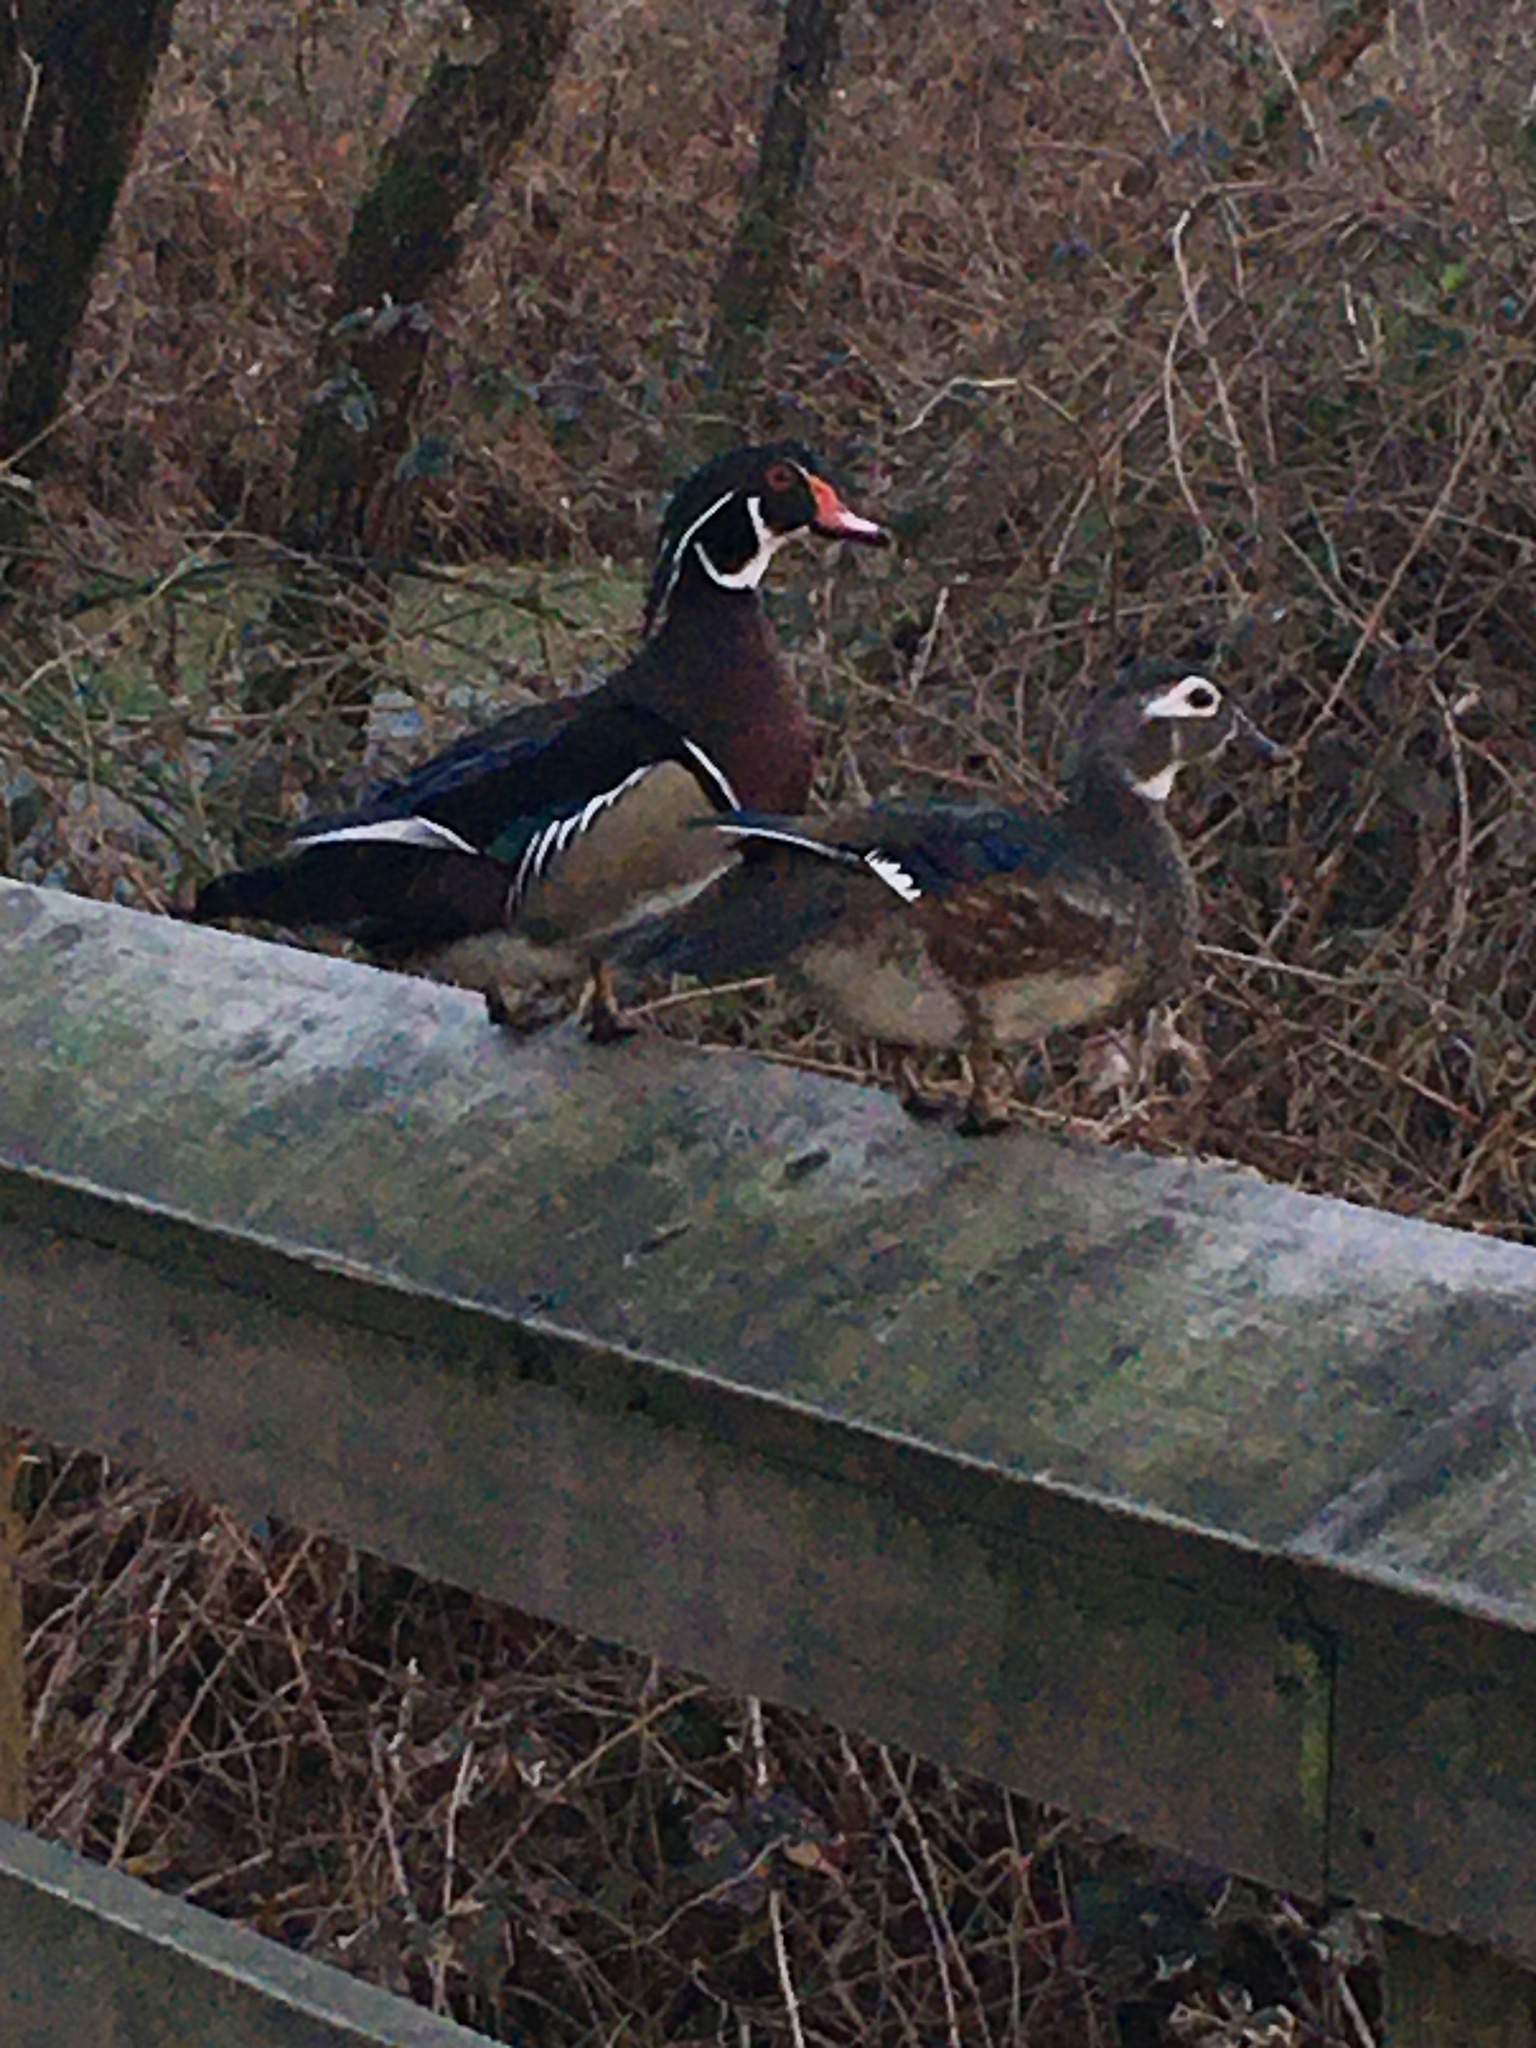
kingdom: Animalia
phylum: Chordata
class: Aves
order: Anseriformes
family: Anatidae
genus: Aix
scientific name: Aix sponsa
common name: Wood duck
